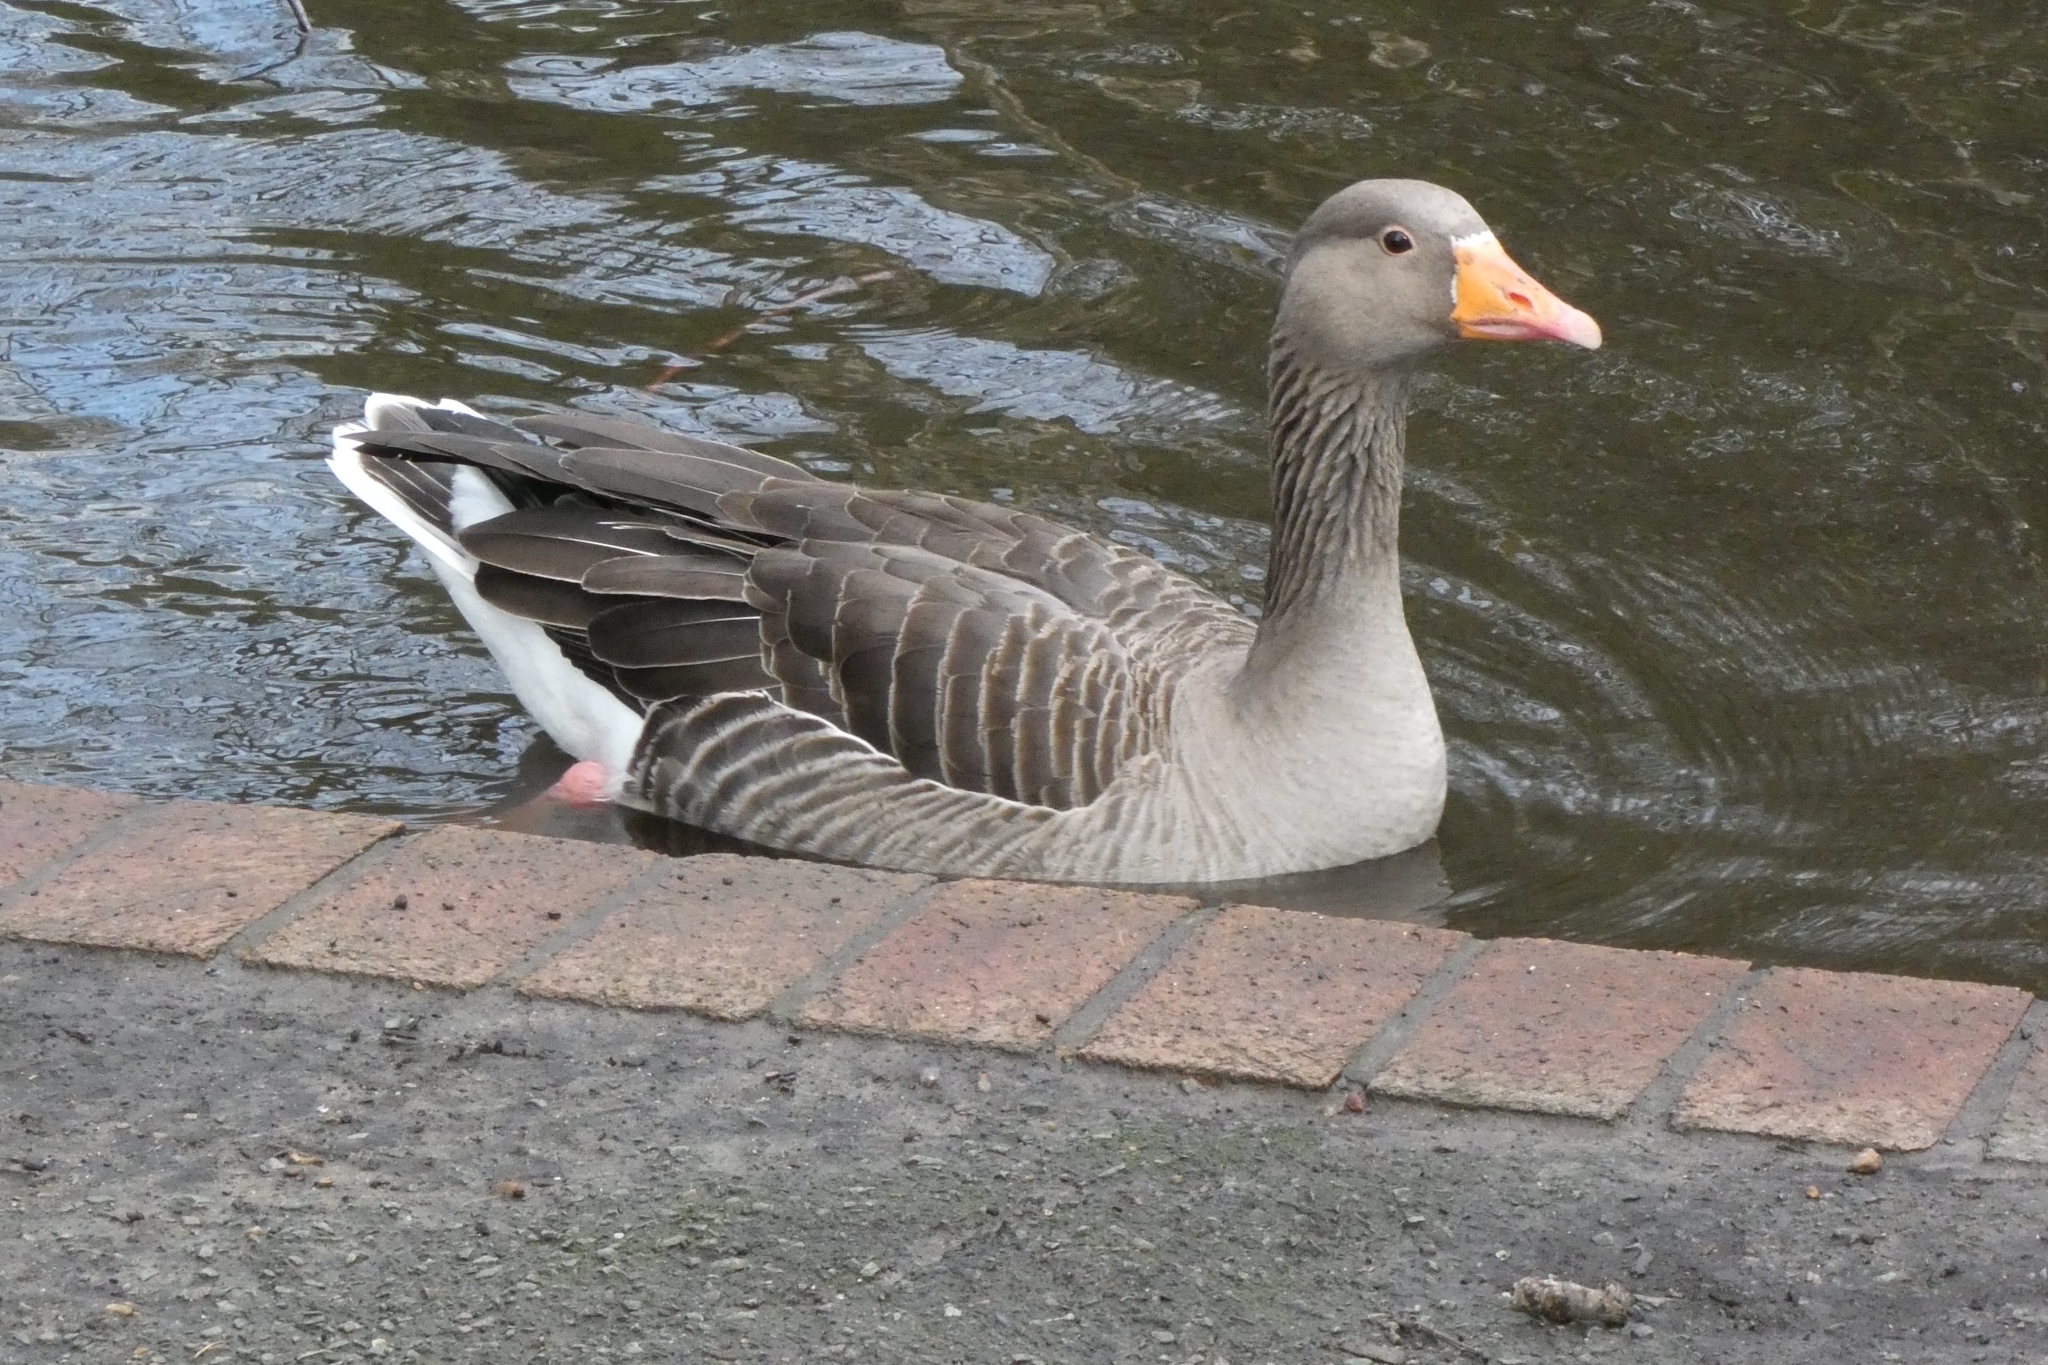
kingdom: Animalia
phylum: Chordata
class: Aves
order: Anseriformes
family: Anatidae
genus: Anser
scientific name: Anser anser
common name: Greylag goose
